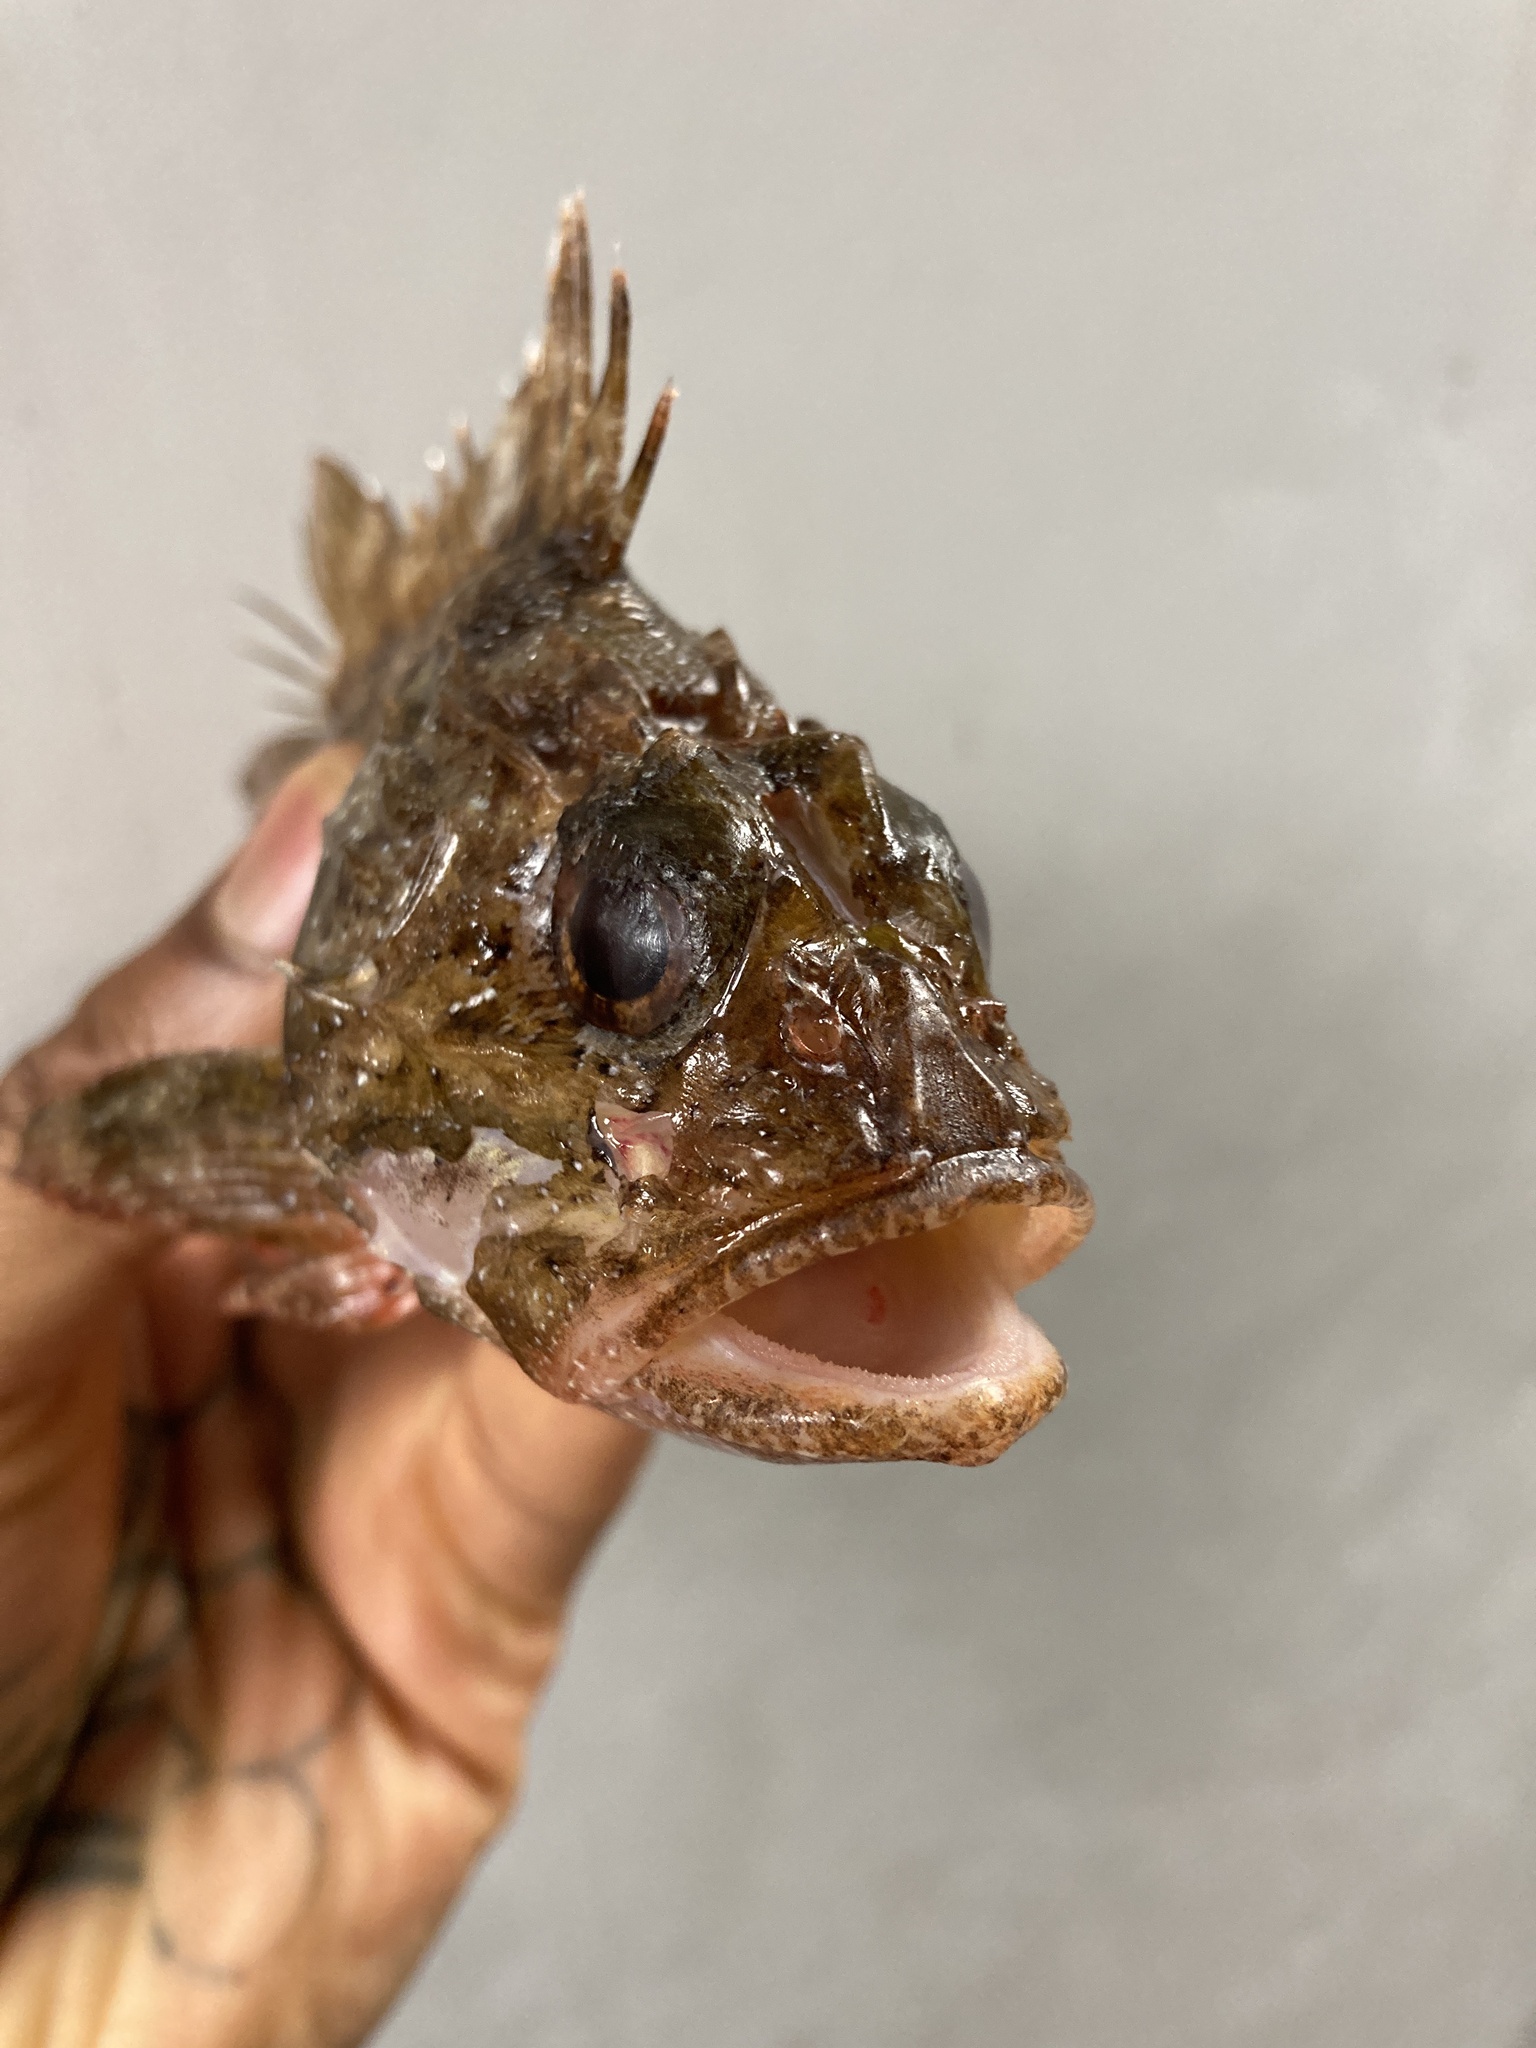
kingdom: Animalia
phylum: Chordata
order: Scorpaeniformes
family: Scorpaenidae
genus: Scorpaena
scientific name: Scorpaena porcus
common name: Black scorpionfish
